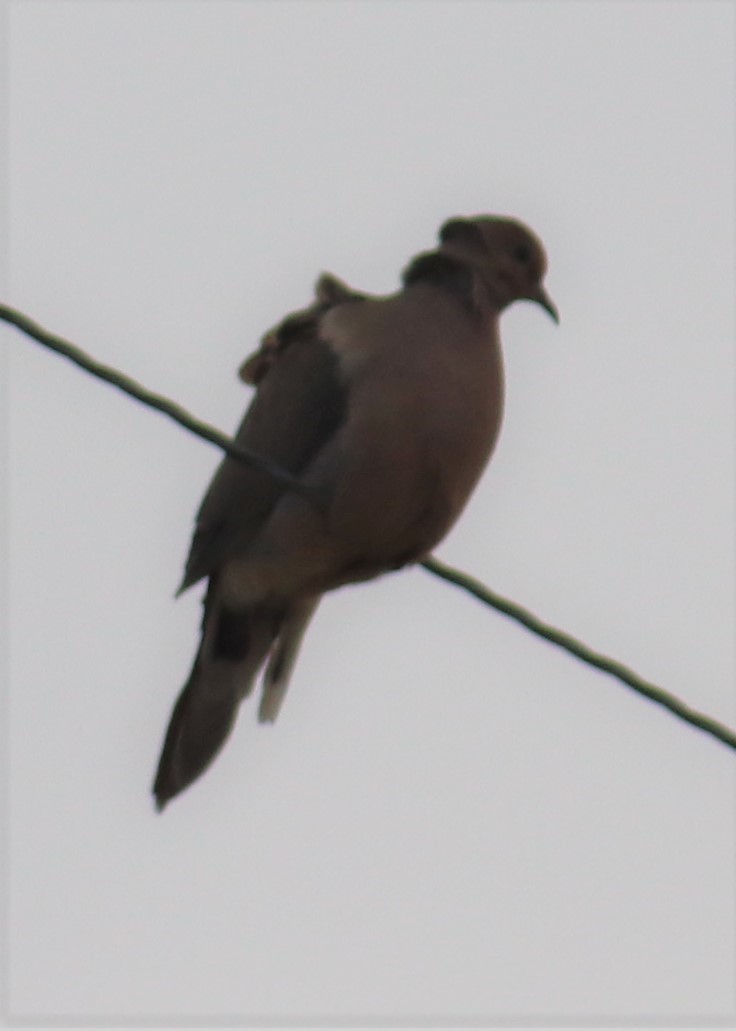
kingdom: Animalia
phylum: Chordata
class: Aves
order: Columbiformes
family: Columbidae
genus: Zenaida
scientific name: Zenaida macroura
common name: Mourning dove
